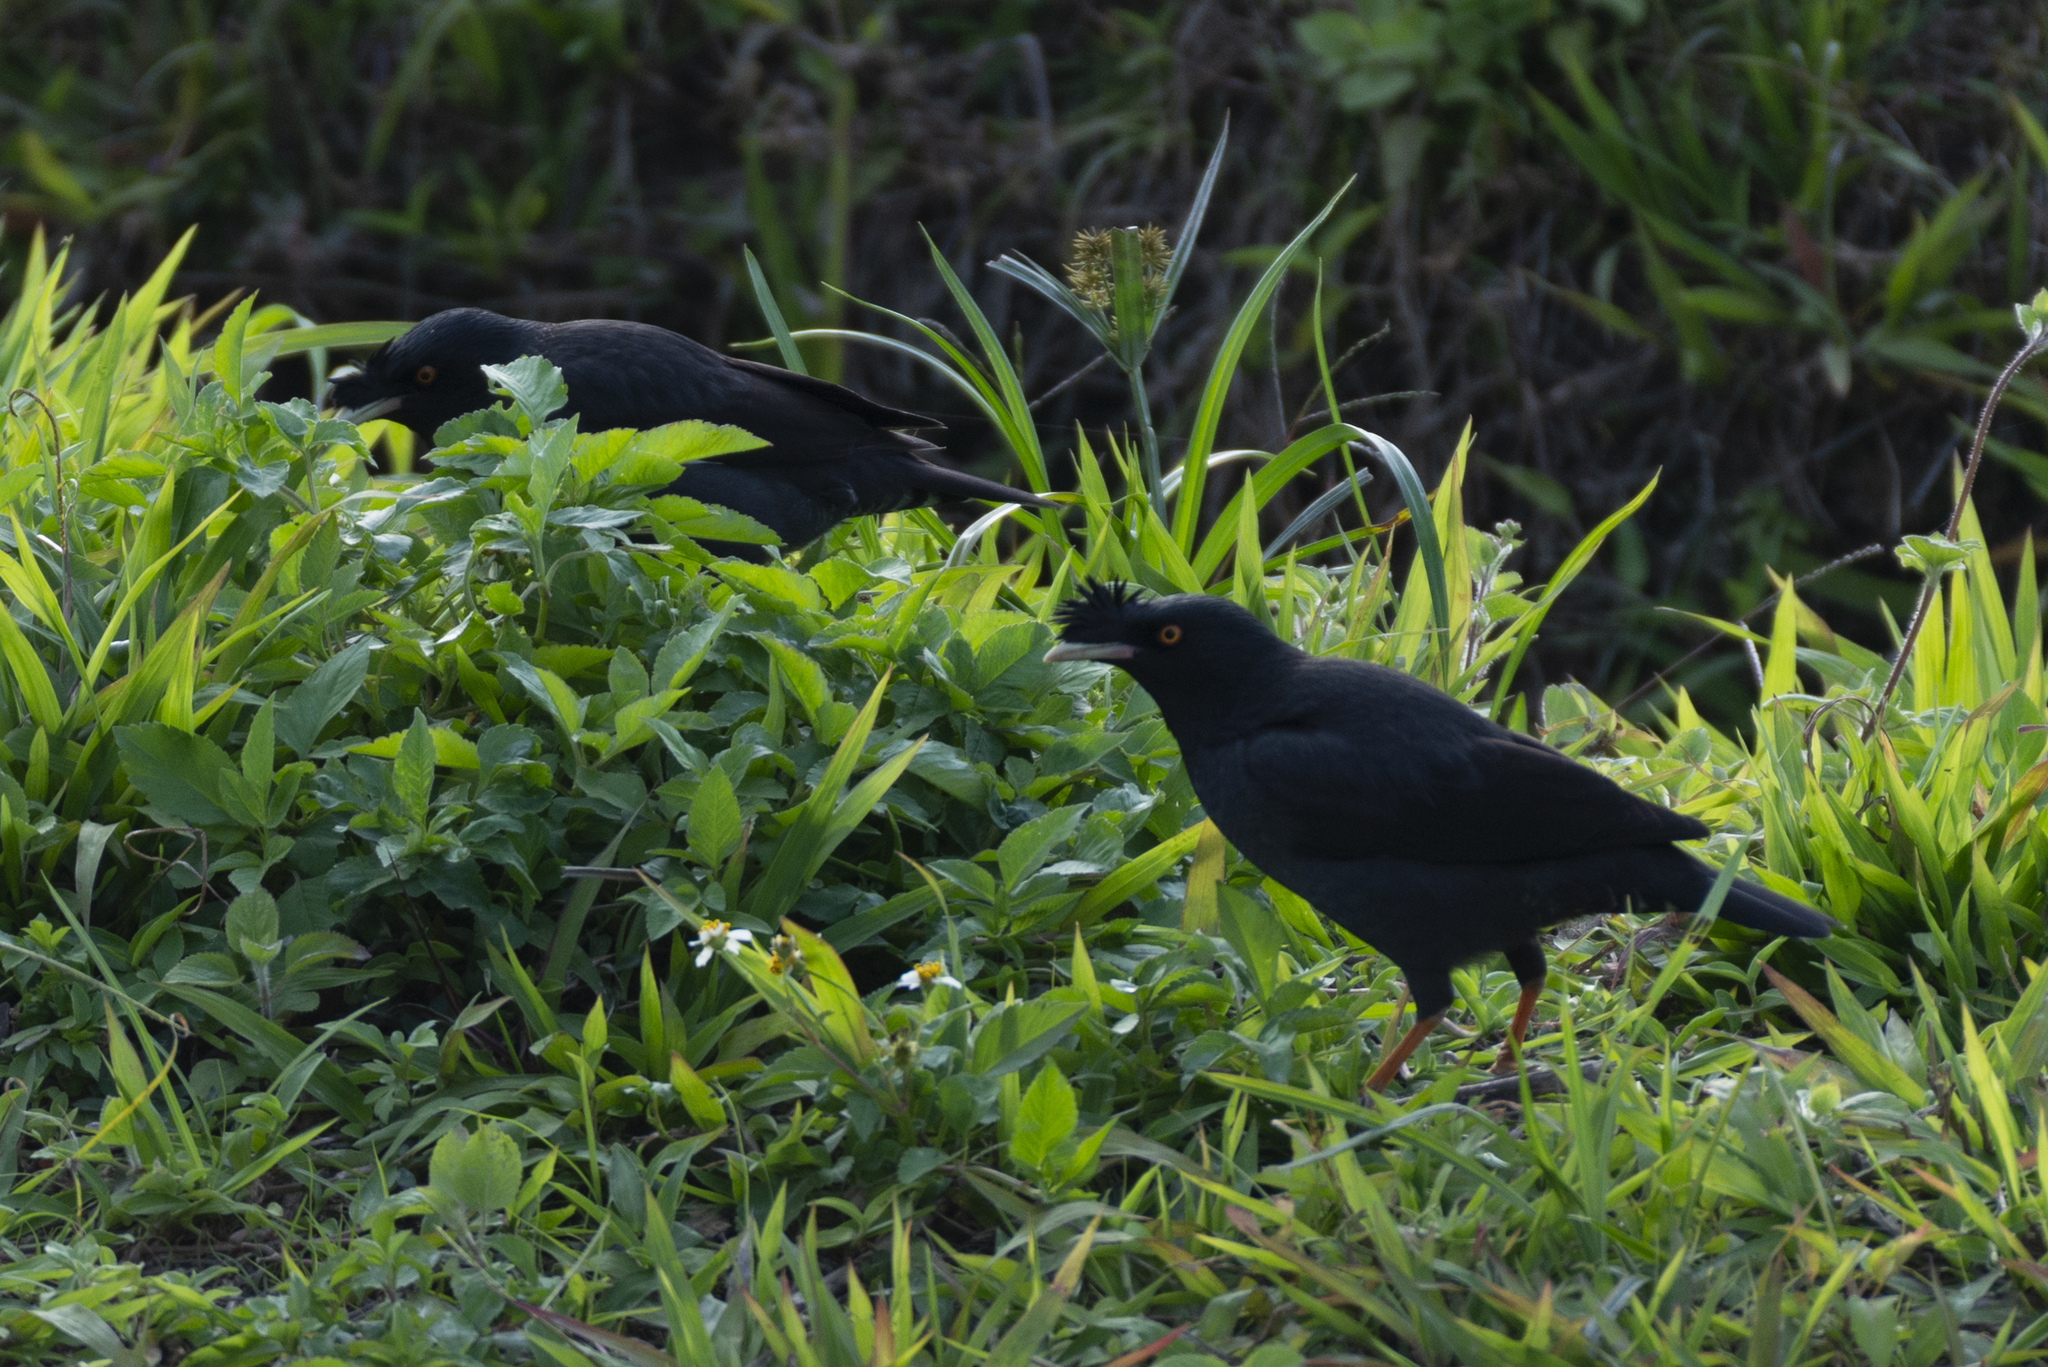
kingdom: Animalia
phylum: Chordata
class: Aves
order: Passeriformes
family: Sturnidae
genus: Acridotheres
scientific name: Acridotheres cristatellus
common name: Crested myna
